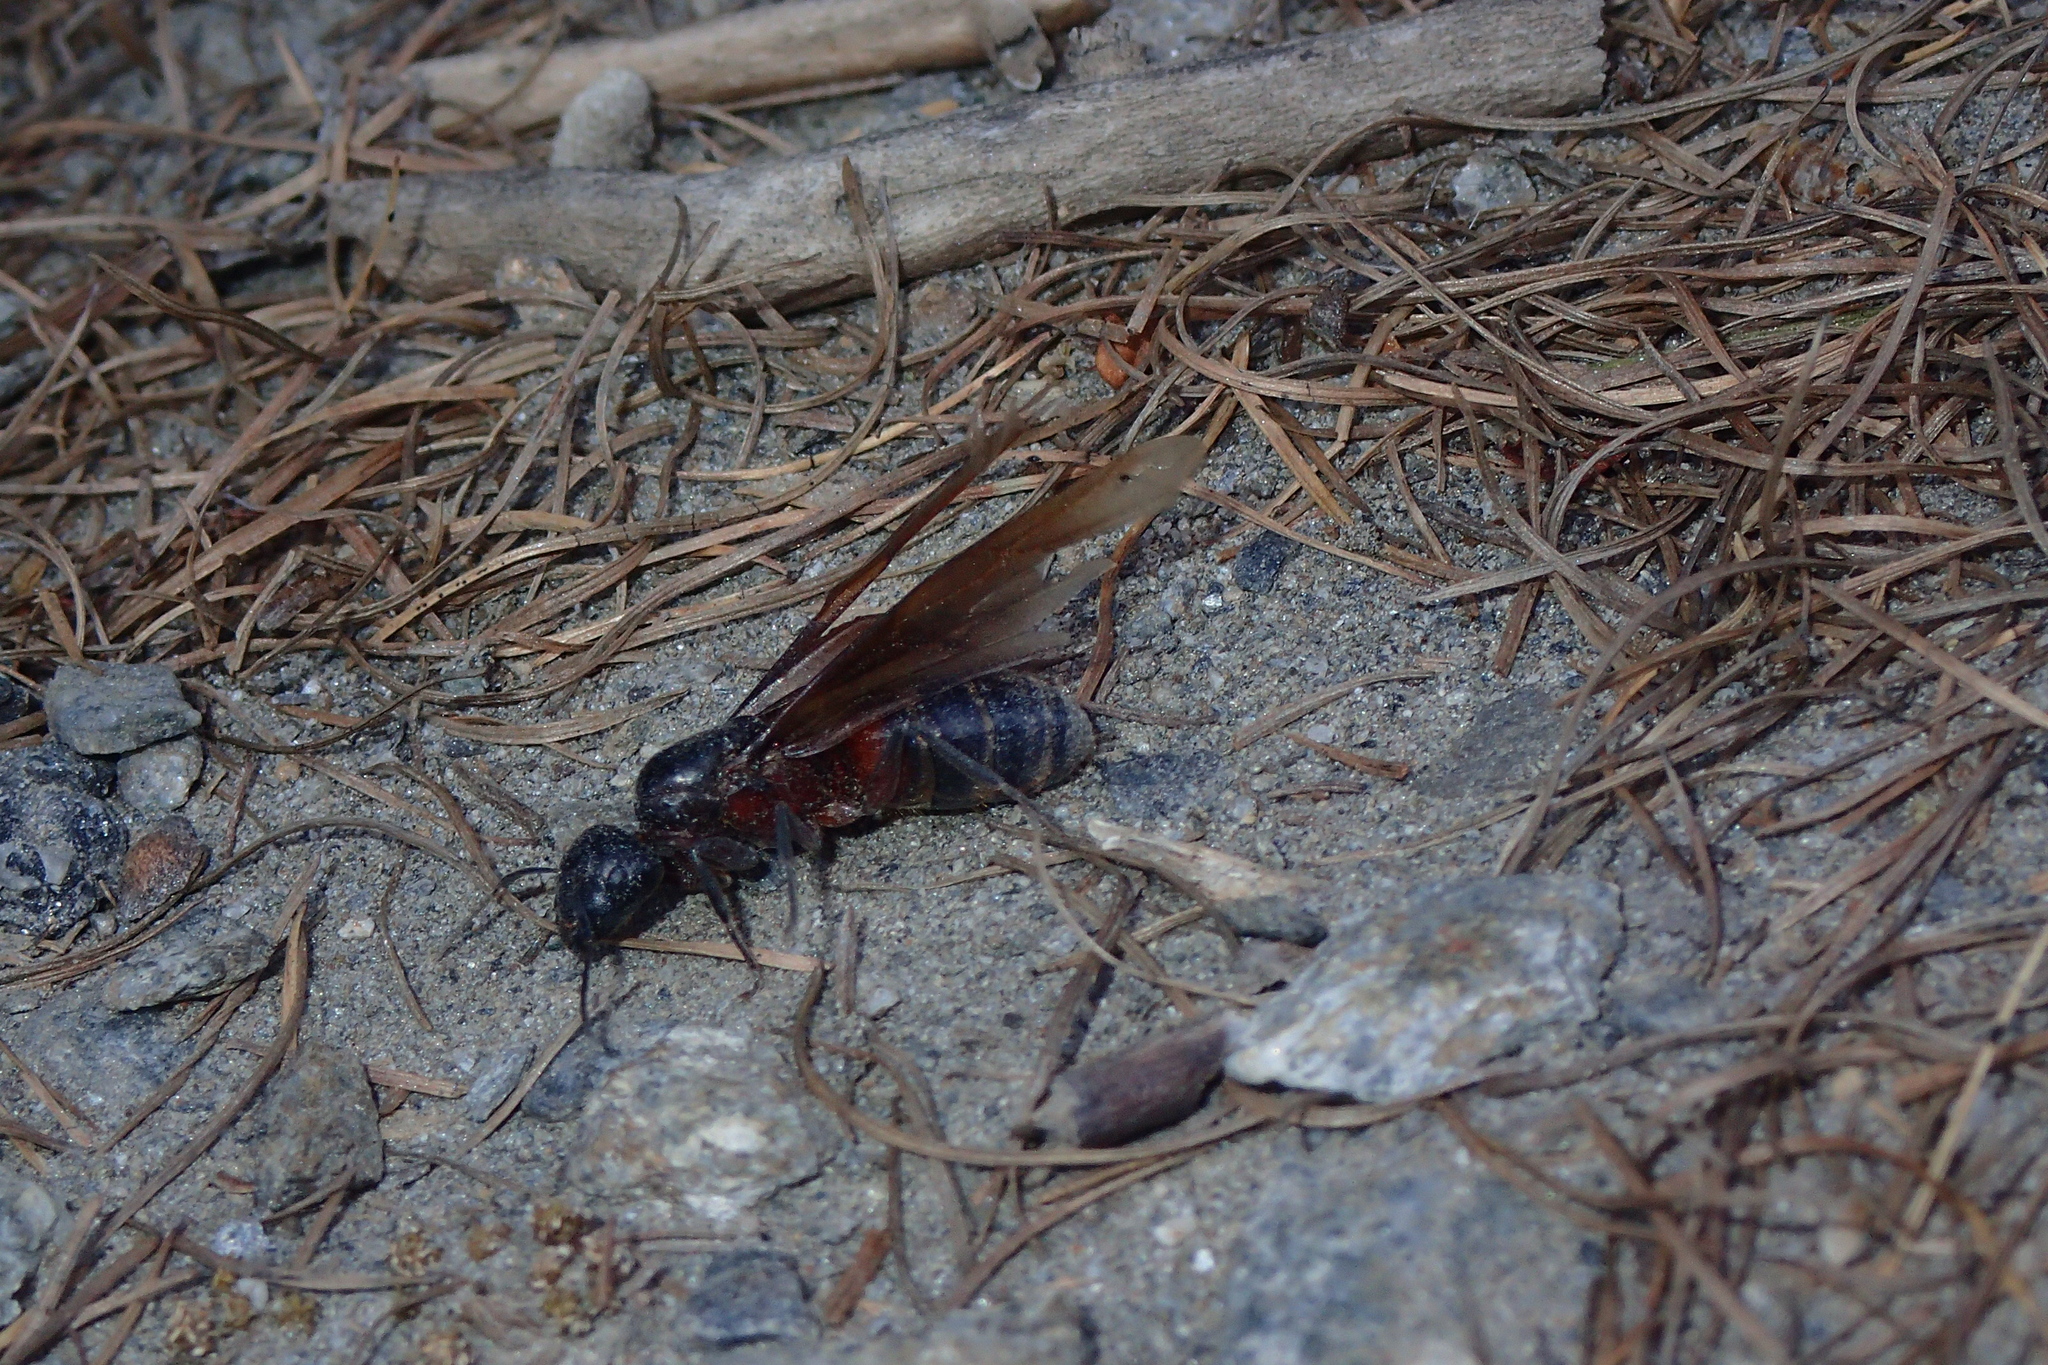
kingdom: Animalia
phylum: Arthropoda
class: Insecta
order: Hymenoptera
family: Formicidae
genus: Camponotus
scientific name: Camponotus ligniperdus
